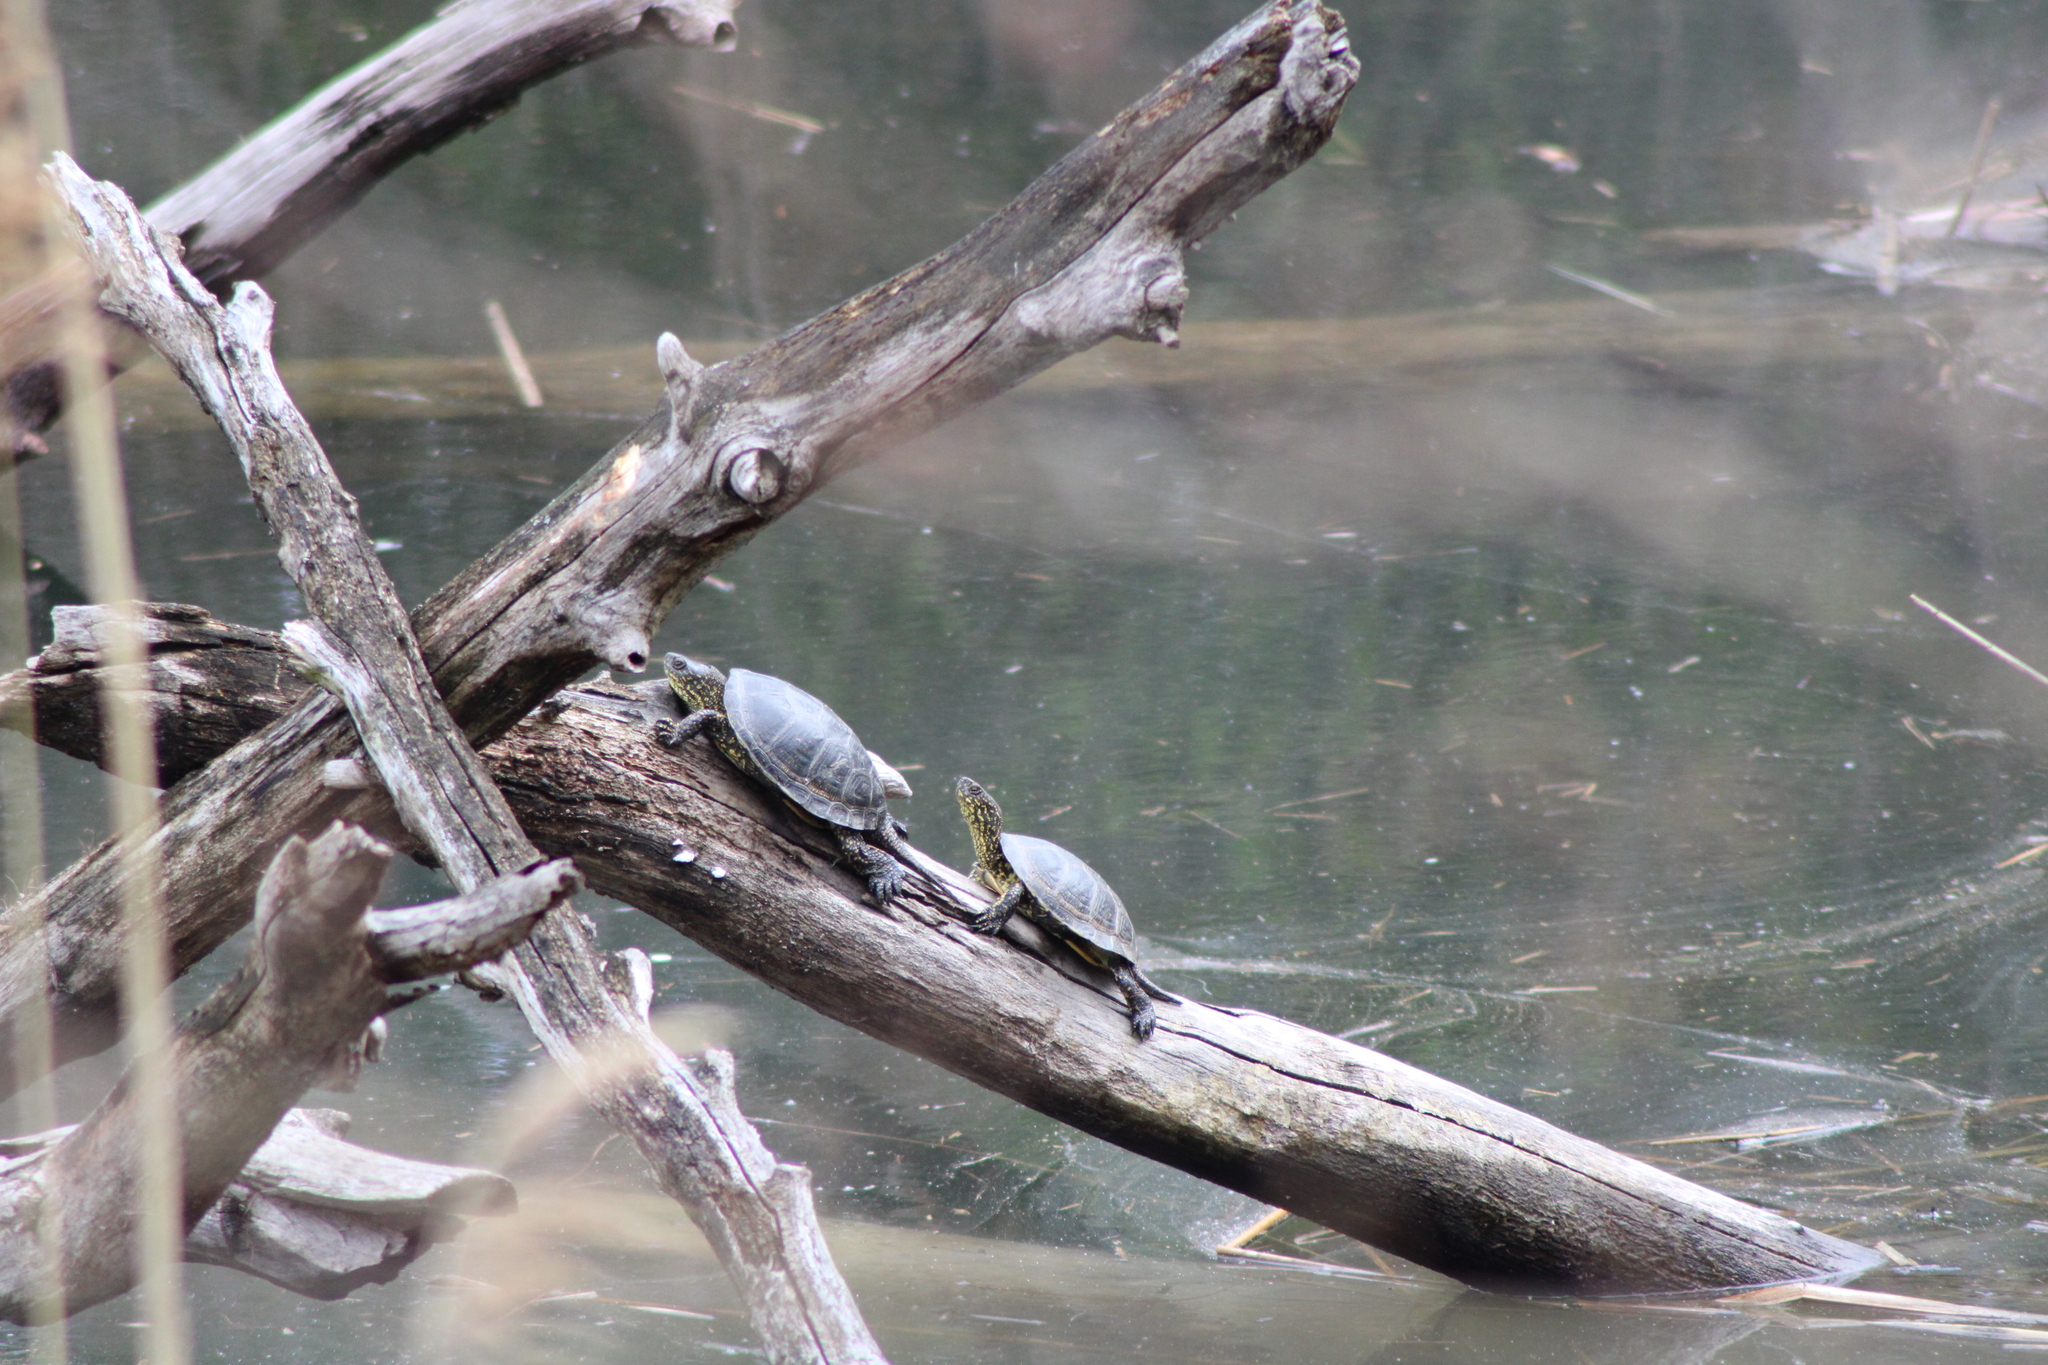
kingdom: Animalia
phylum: Chordata
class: Testudines
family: Emydidae
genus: Emys
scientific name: Emys orbicularis
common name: European pond turtle
